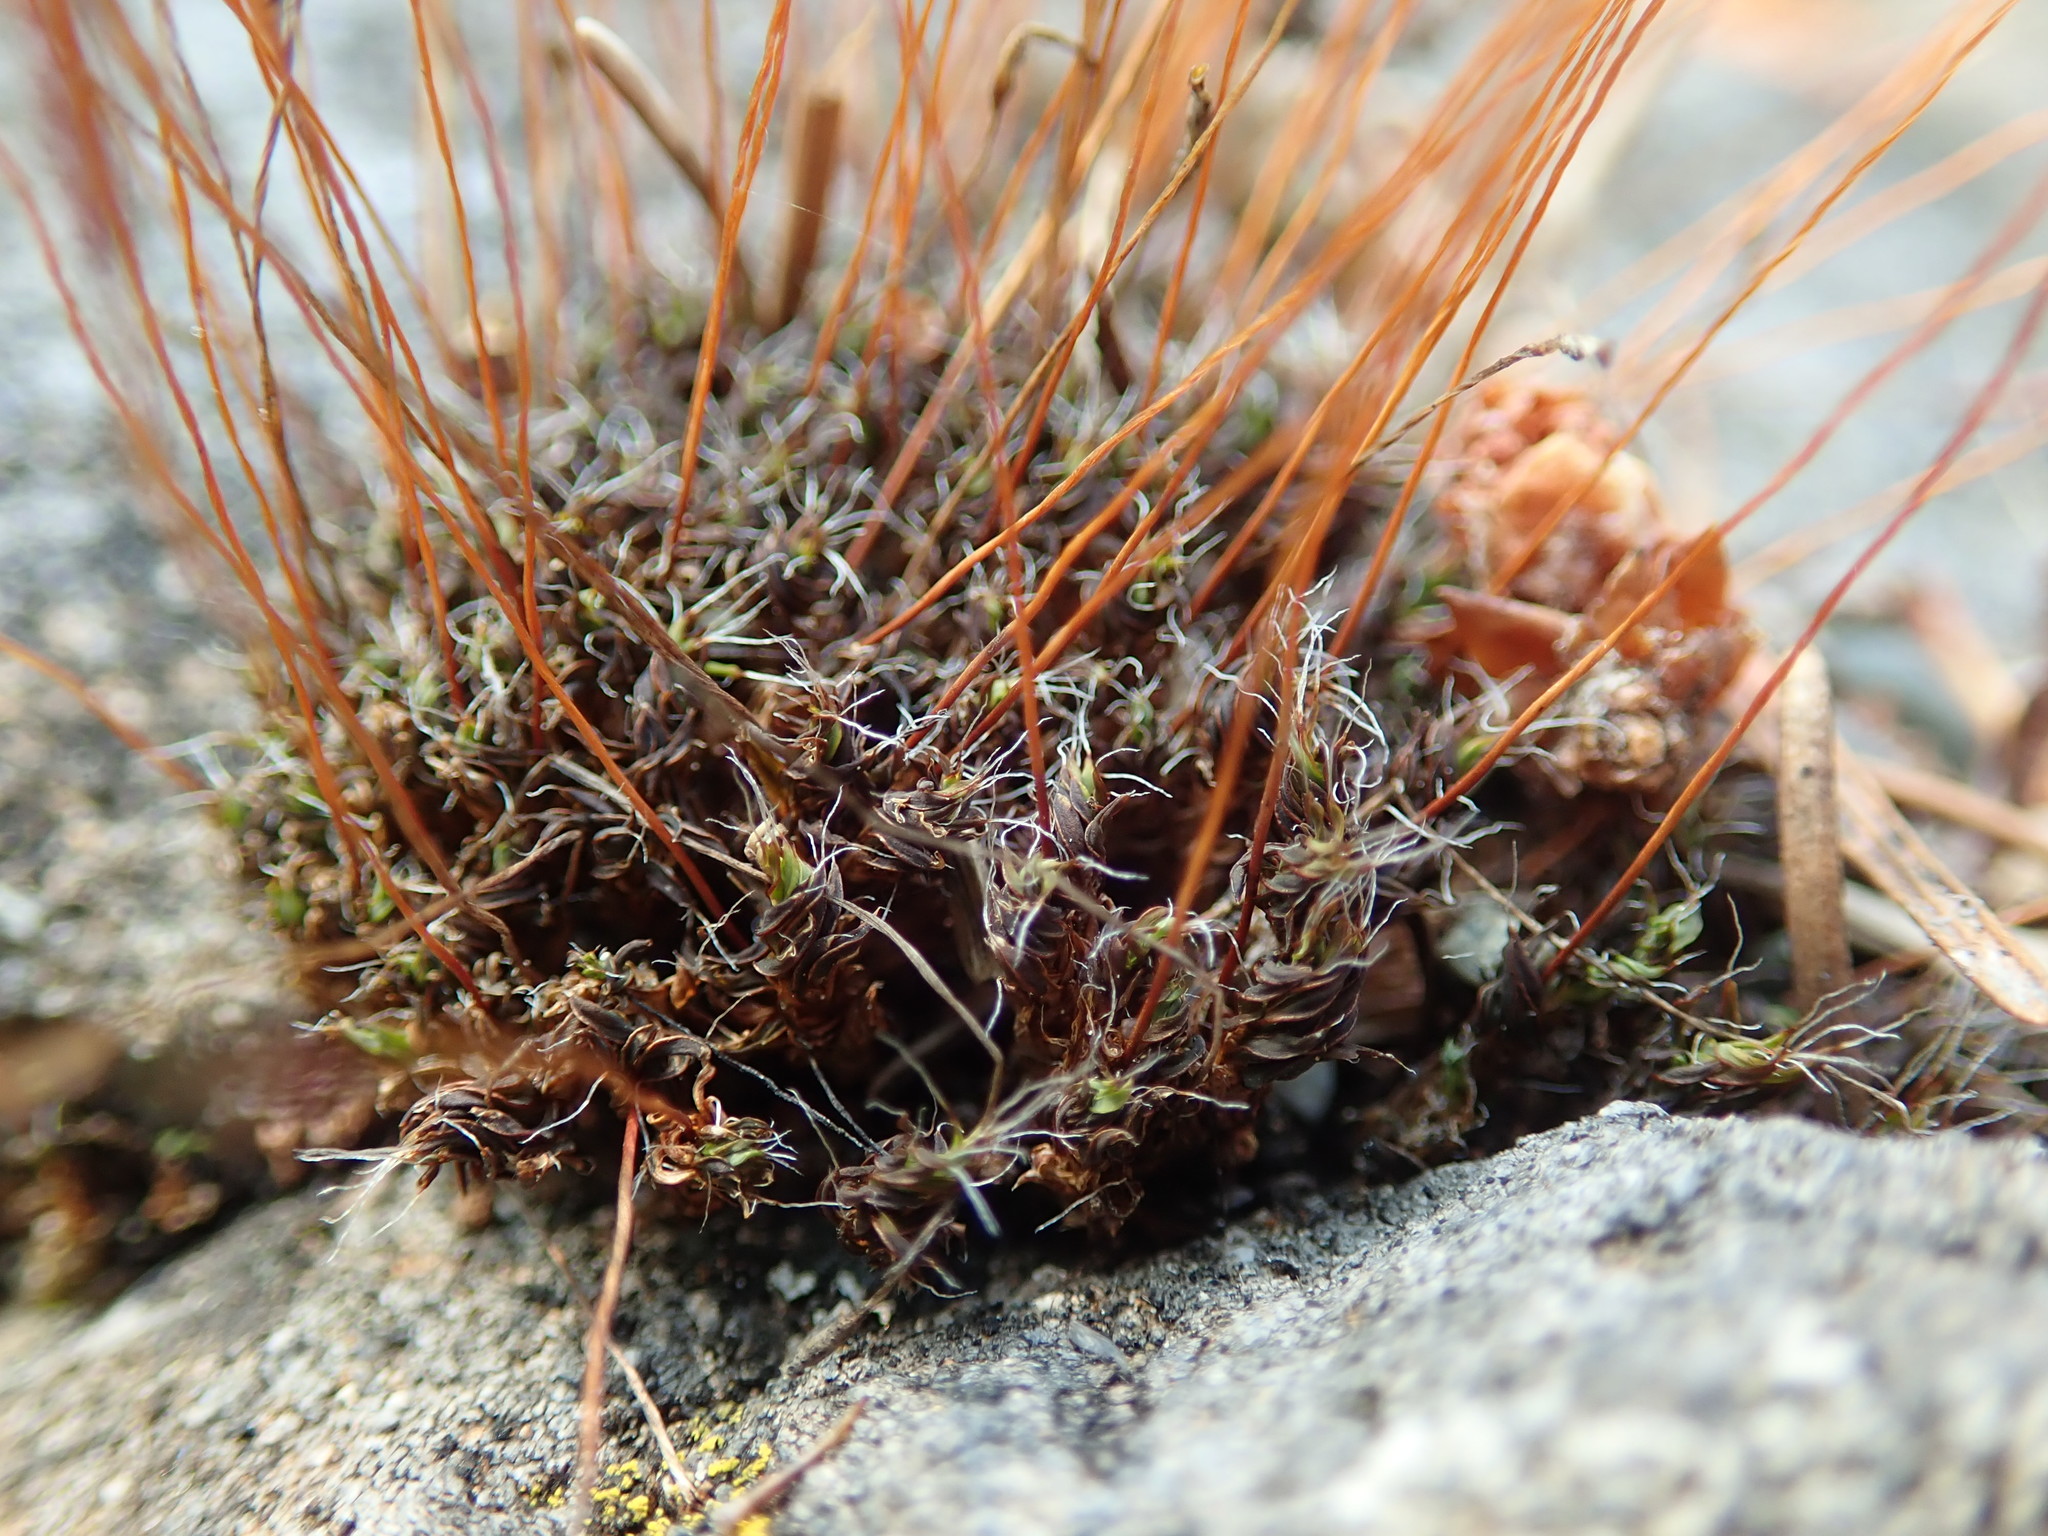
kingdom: Plantae
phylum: Bryophyta
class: Bryopsida
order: Pottiales
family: Pottiaceae
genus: Syntrichia
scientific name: Syntrichia princeps
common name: Brown screw-moss
